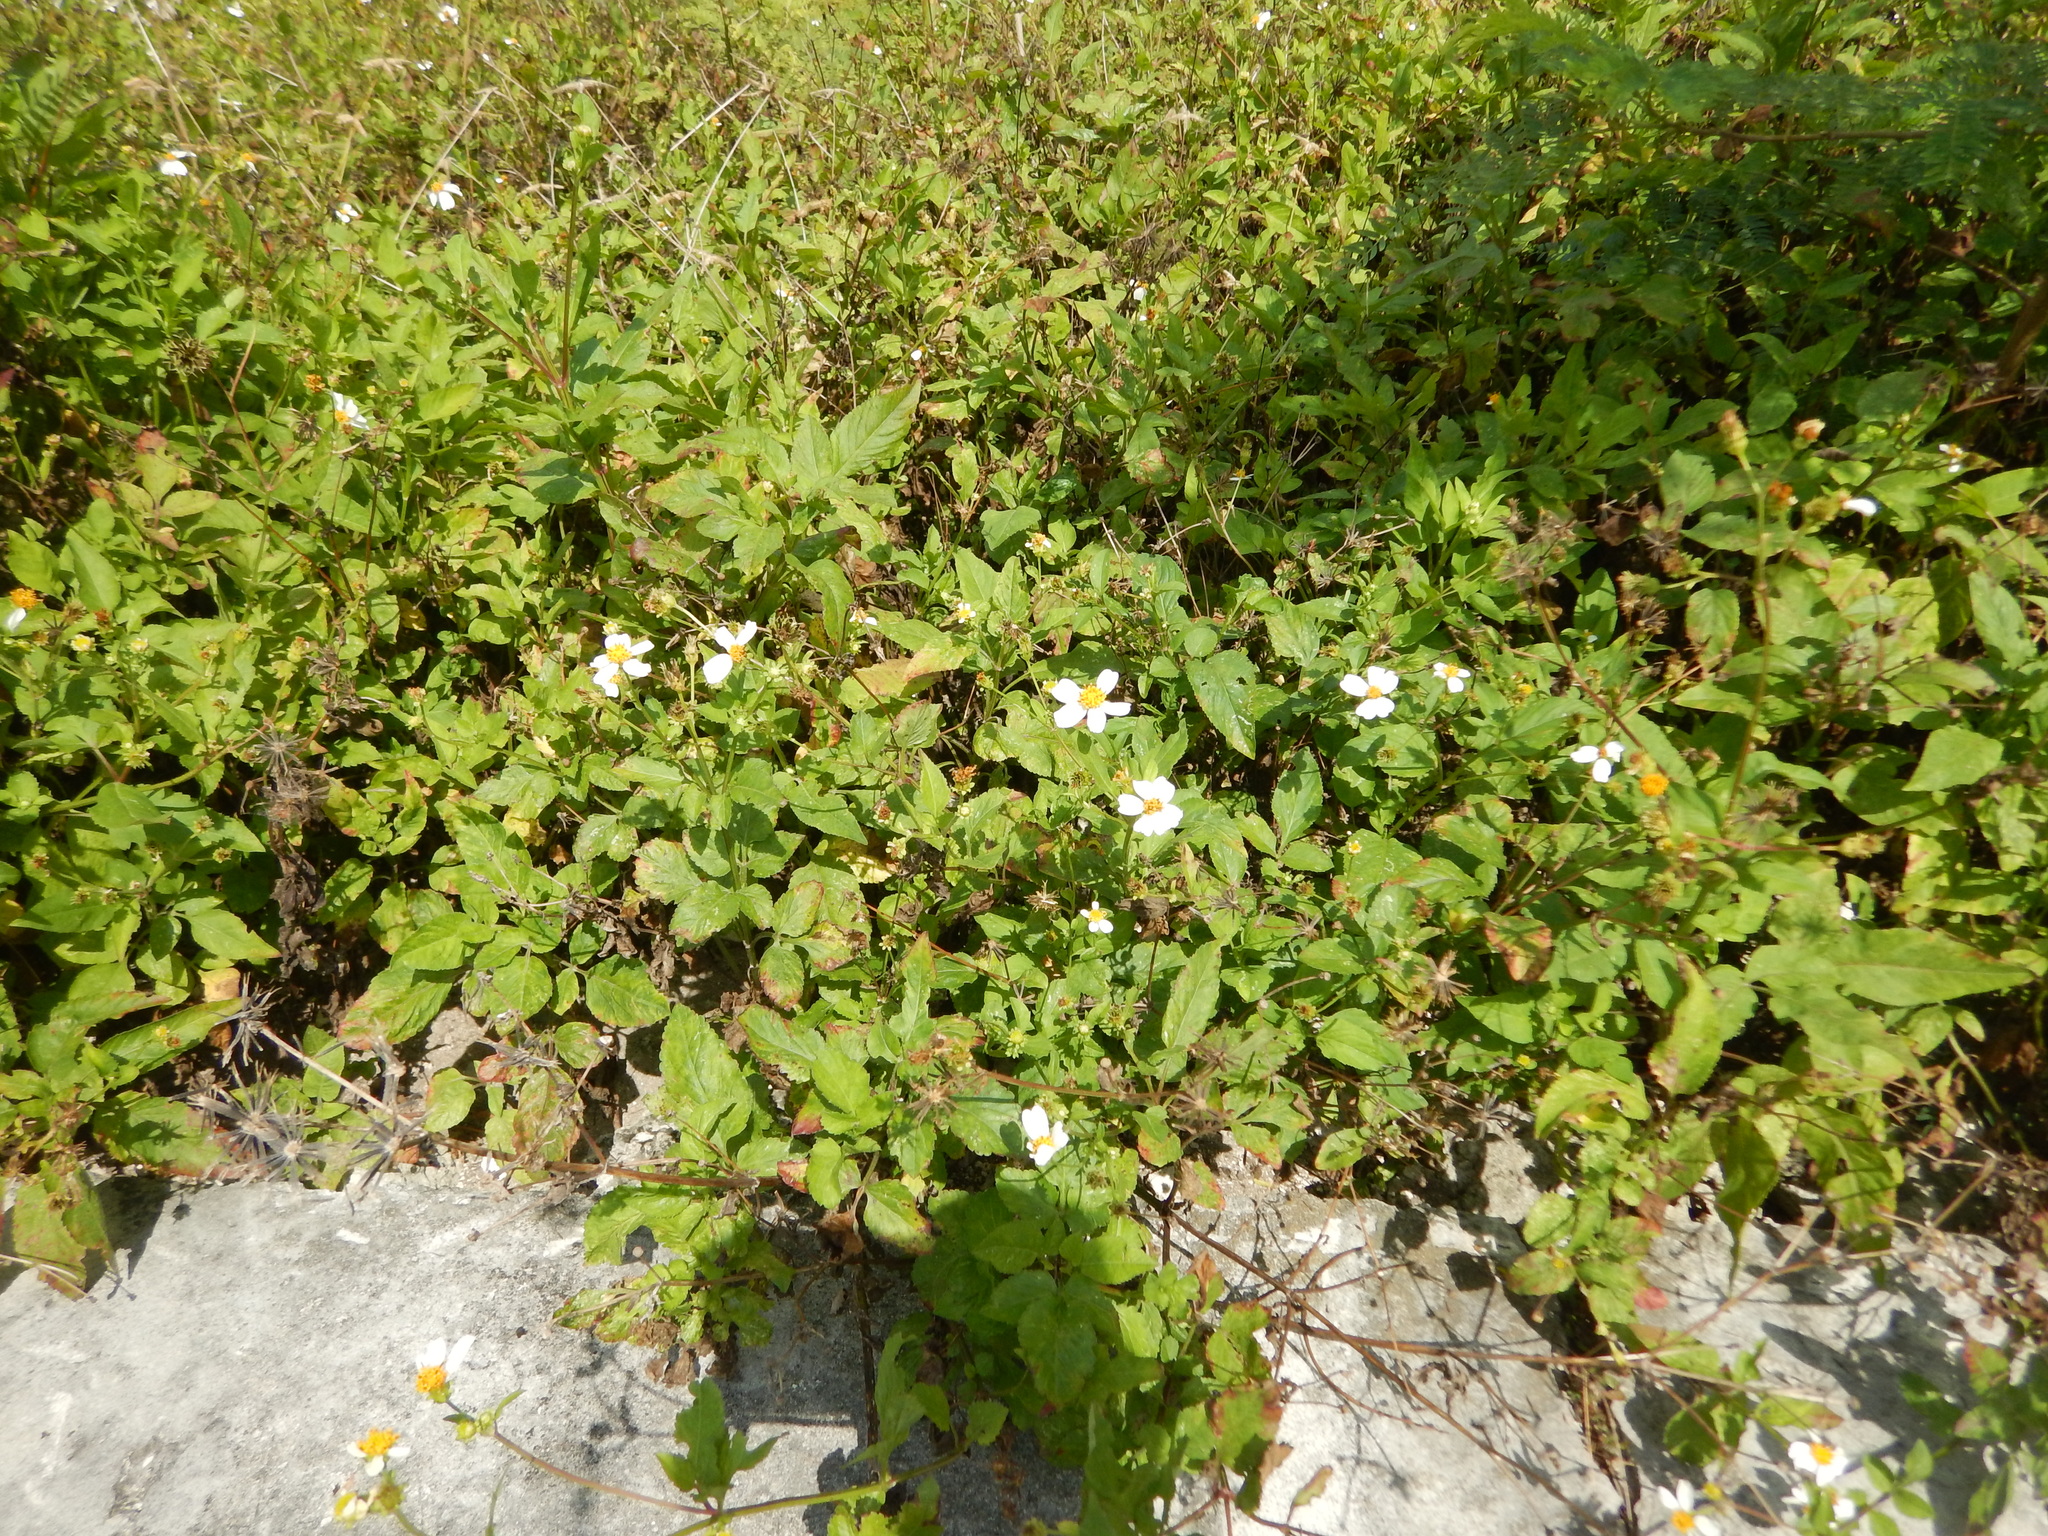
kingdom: Plantae
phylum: Tracheophyta
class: Magnoliopsida
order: Asterales
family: Asteraceae
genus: Bidens
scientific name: Bidens alba
